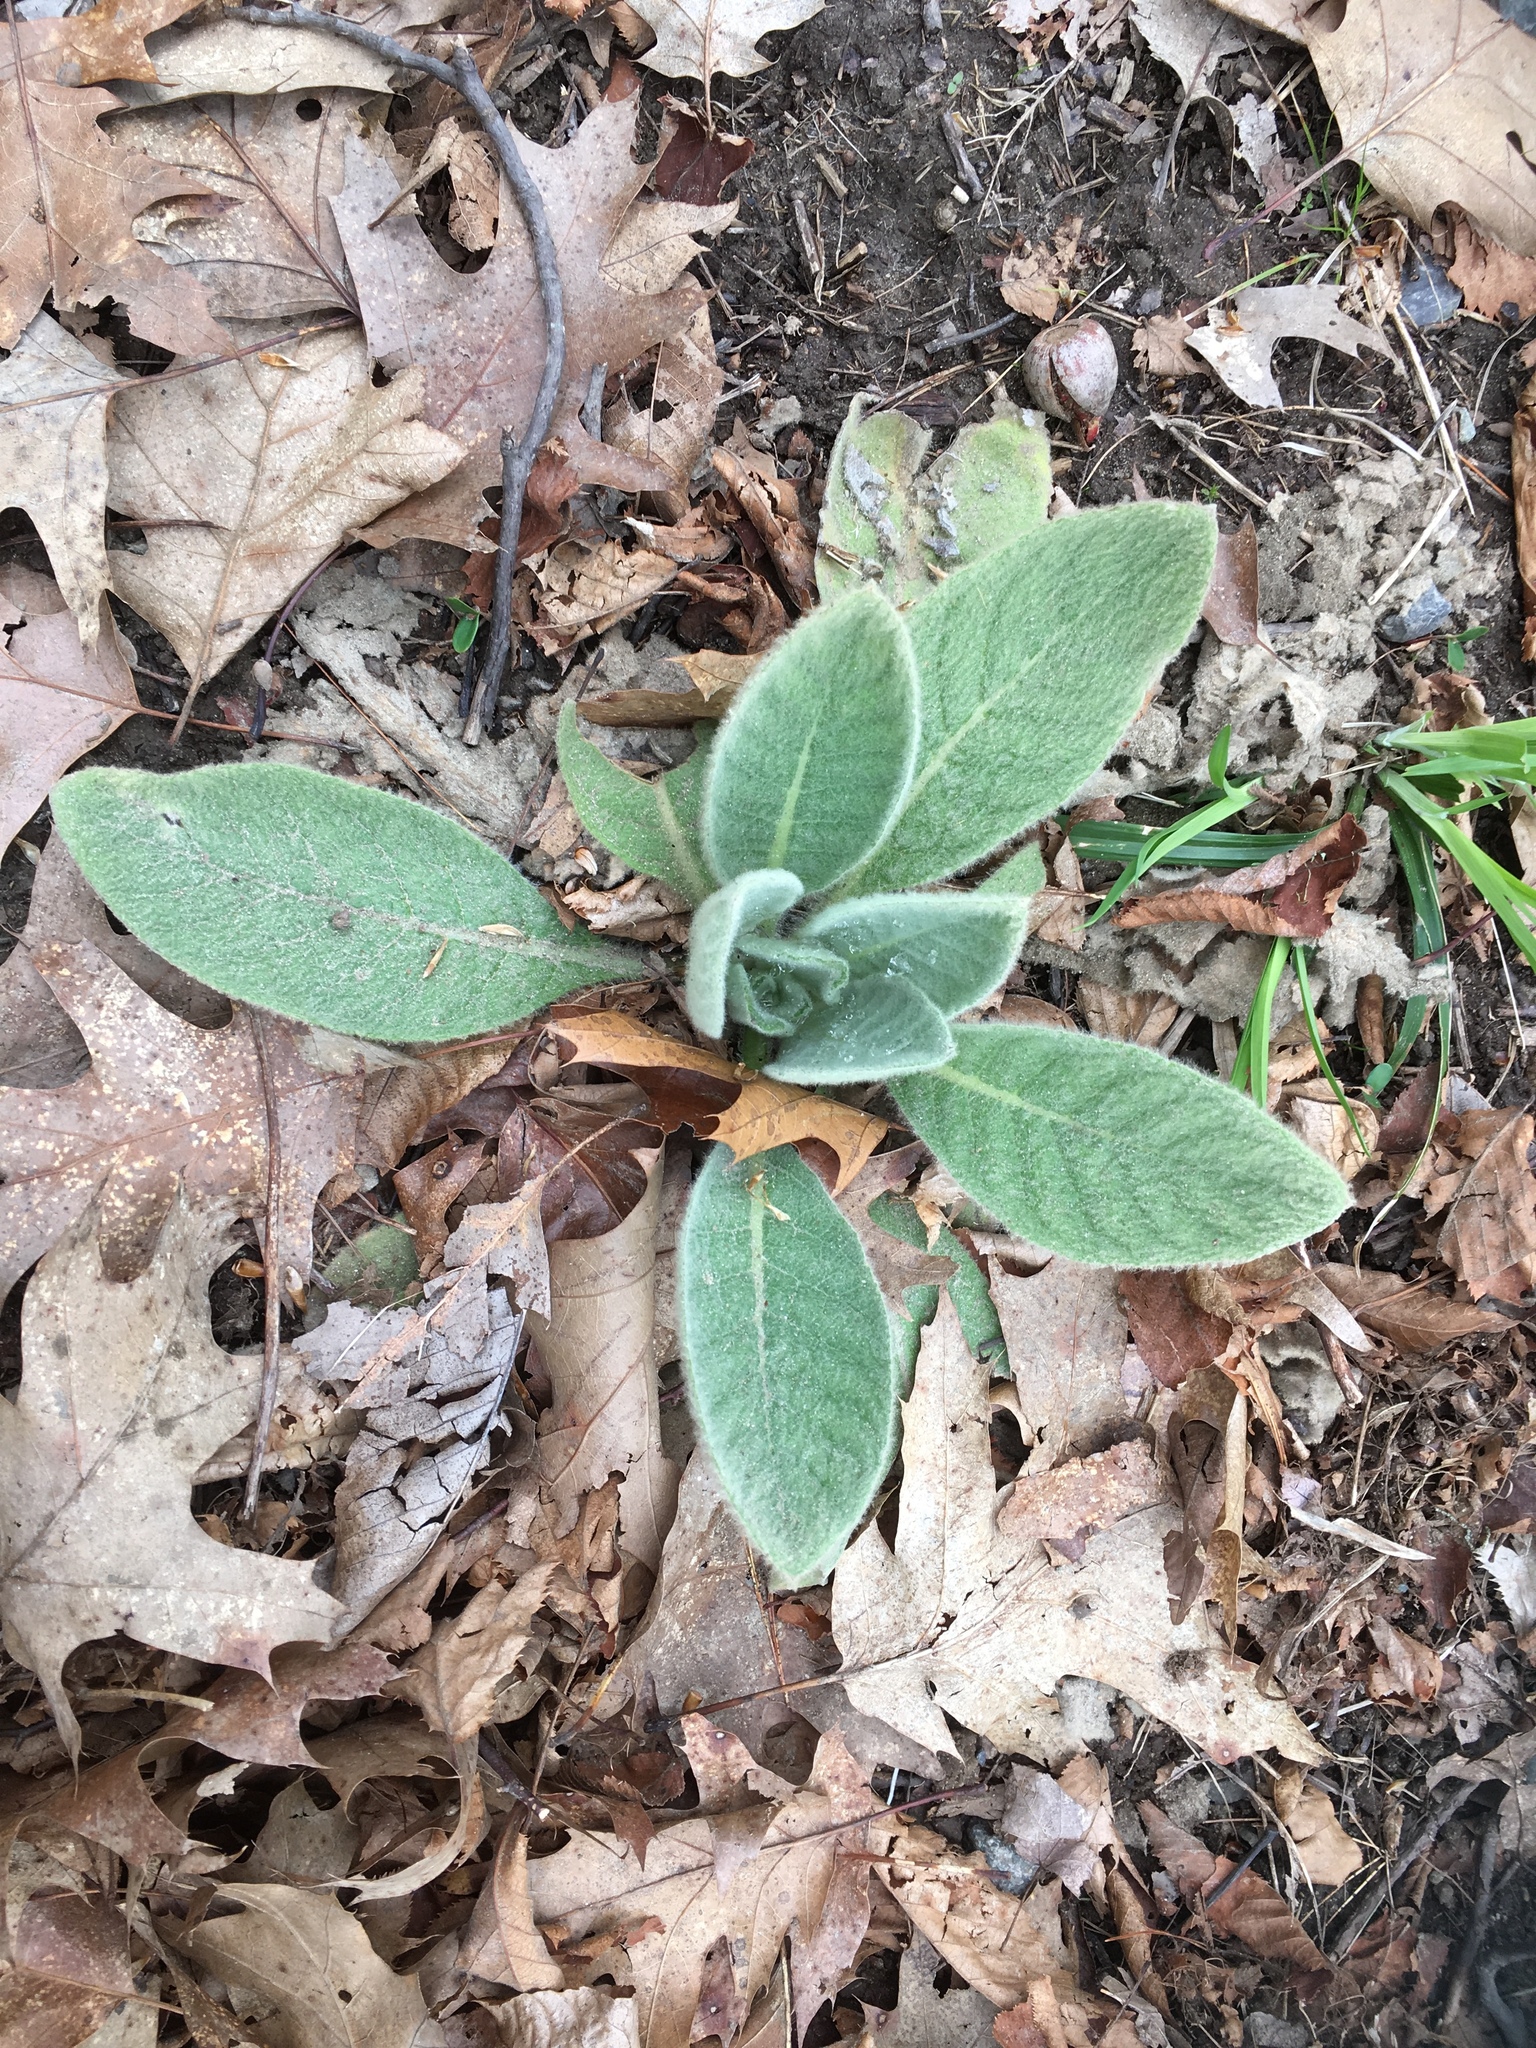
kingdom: Plantae
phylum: Tracheophyta
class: Magnoliopsida
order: Lamiales
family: Scrophulariaceae
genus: Verbascum
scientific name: Verbascum thapsus
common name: Common mullein
